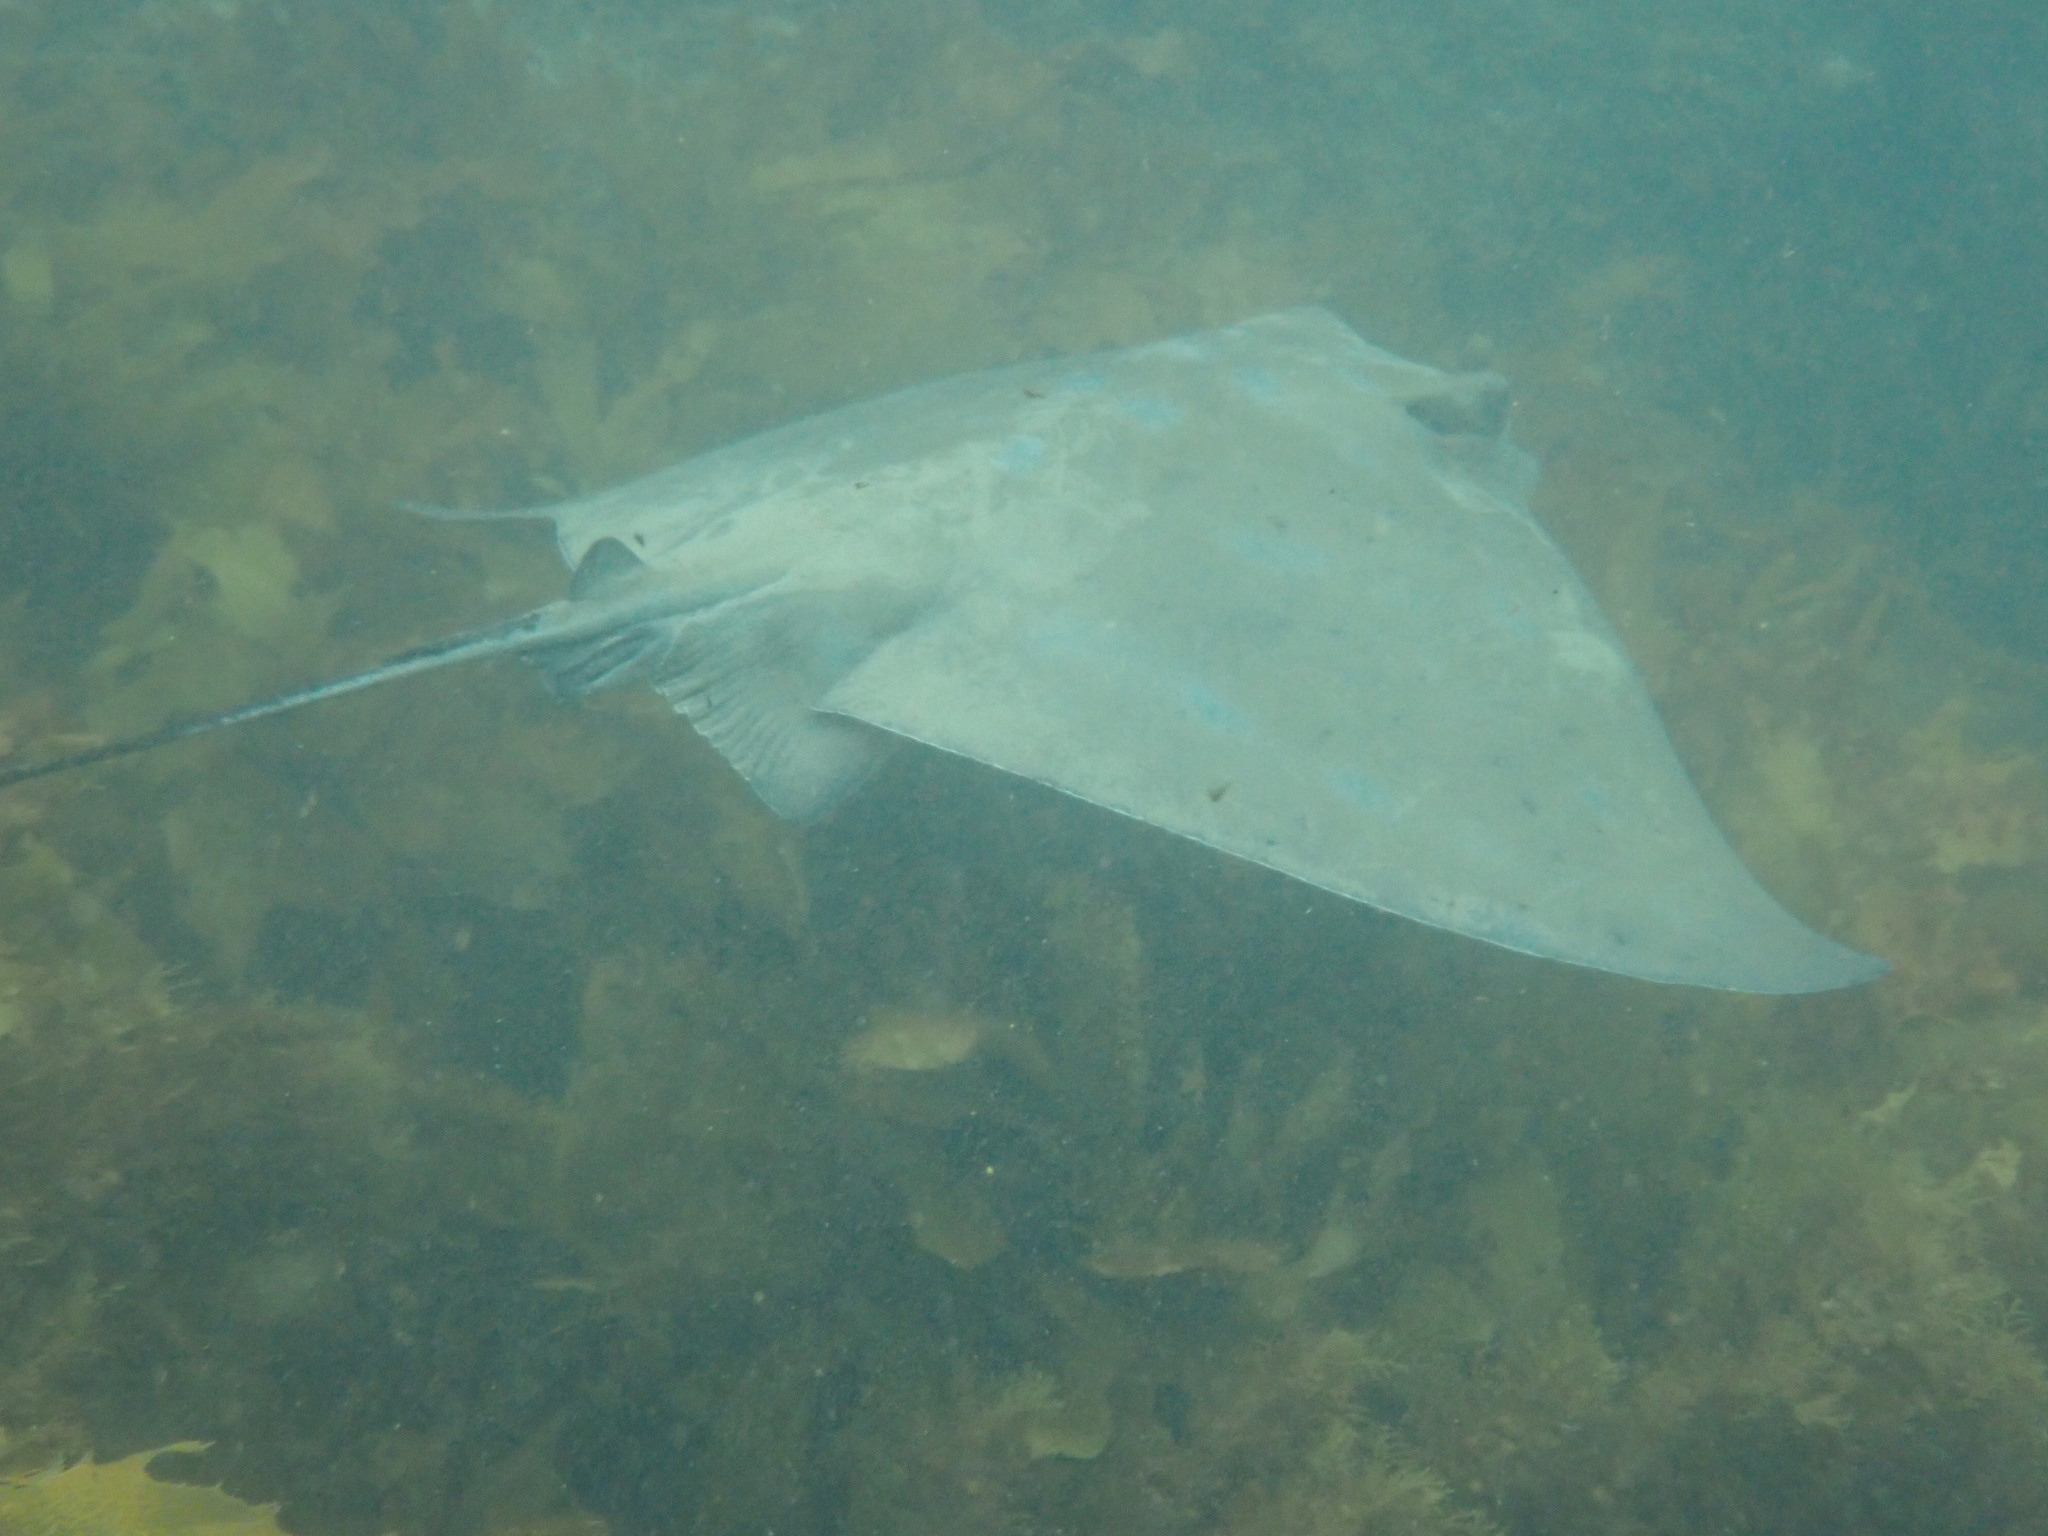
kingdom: Animalia
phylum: Chordata
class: Elasmobranchii
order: Myliobatiformes
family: Myliobatidae
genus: Myliobatis
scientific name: Myliobatis tenuicaudatus
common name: Eagle ray
